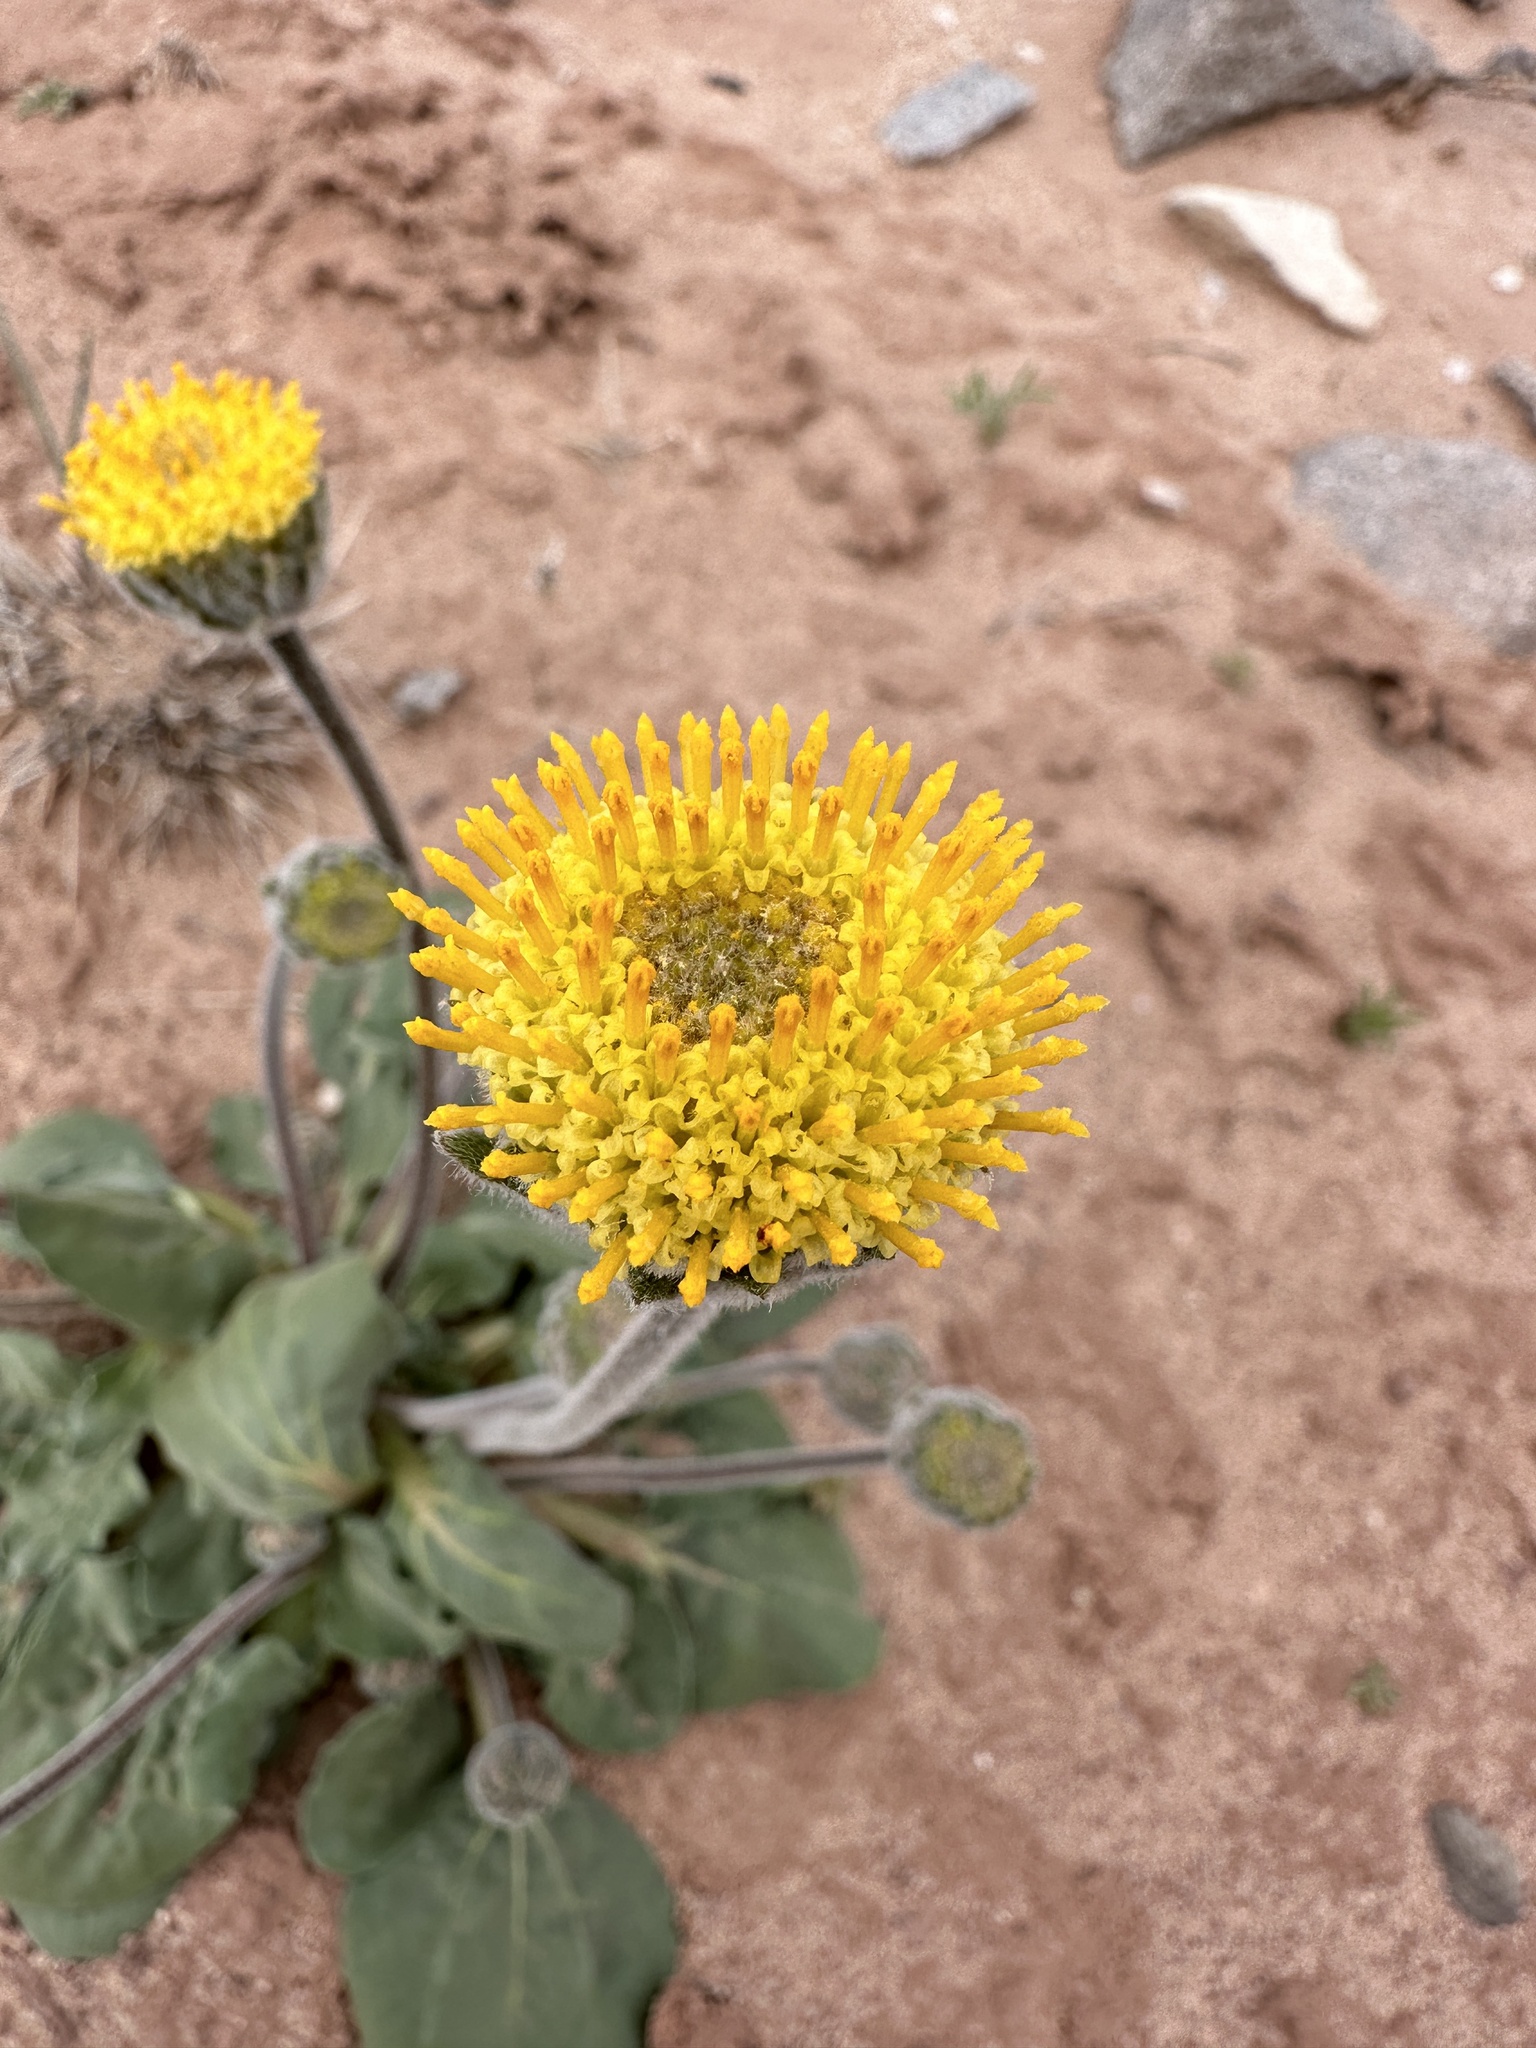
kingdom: Plantae
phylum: Tracheophyta
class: Magnoliopsida
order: Asterales
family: Asteraceae
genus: Encelia
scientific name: Encelia nutans
